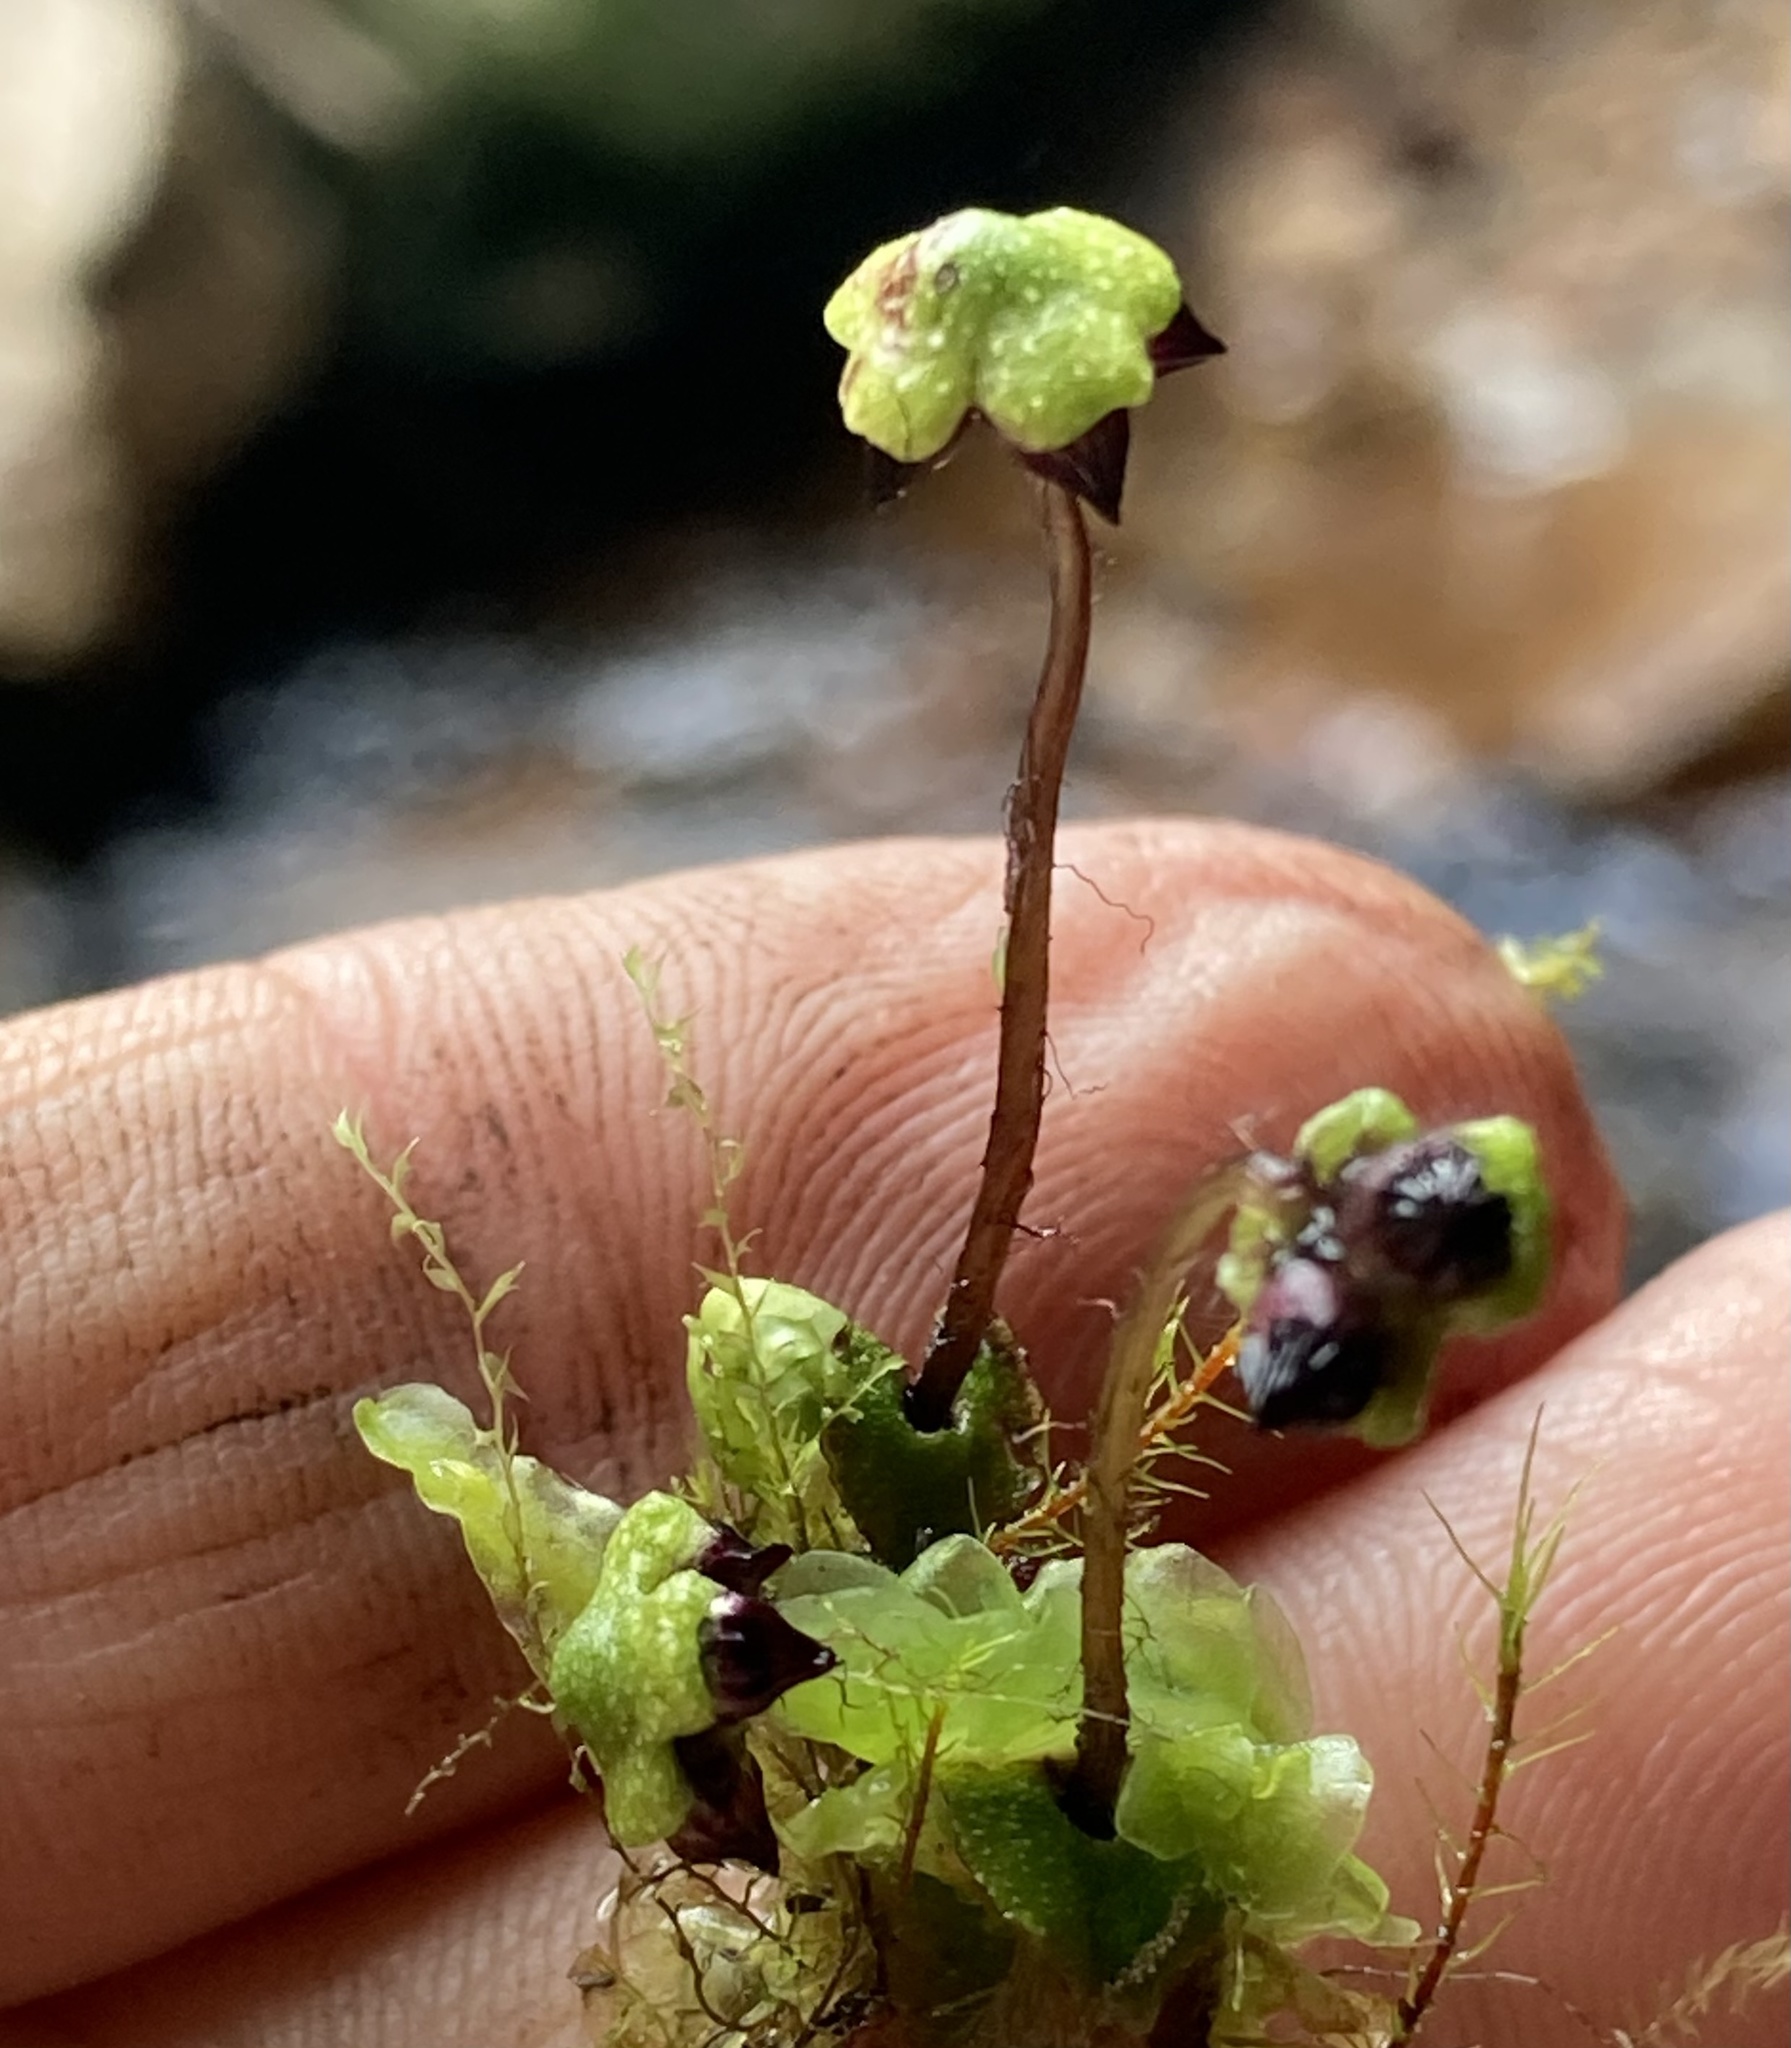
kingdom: Plantae
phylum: Marchantiophyta
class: Marchantiopsida
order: Marchantiales
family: Aytoniaceae
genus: Asterella
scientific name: Asterella macropoda
